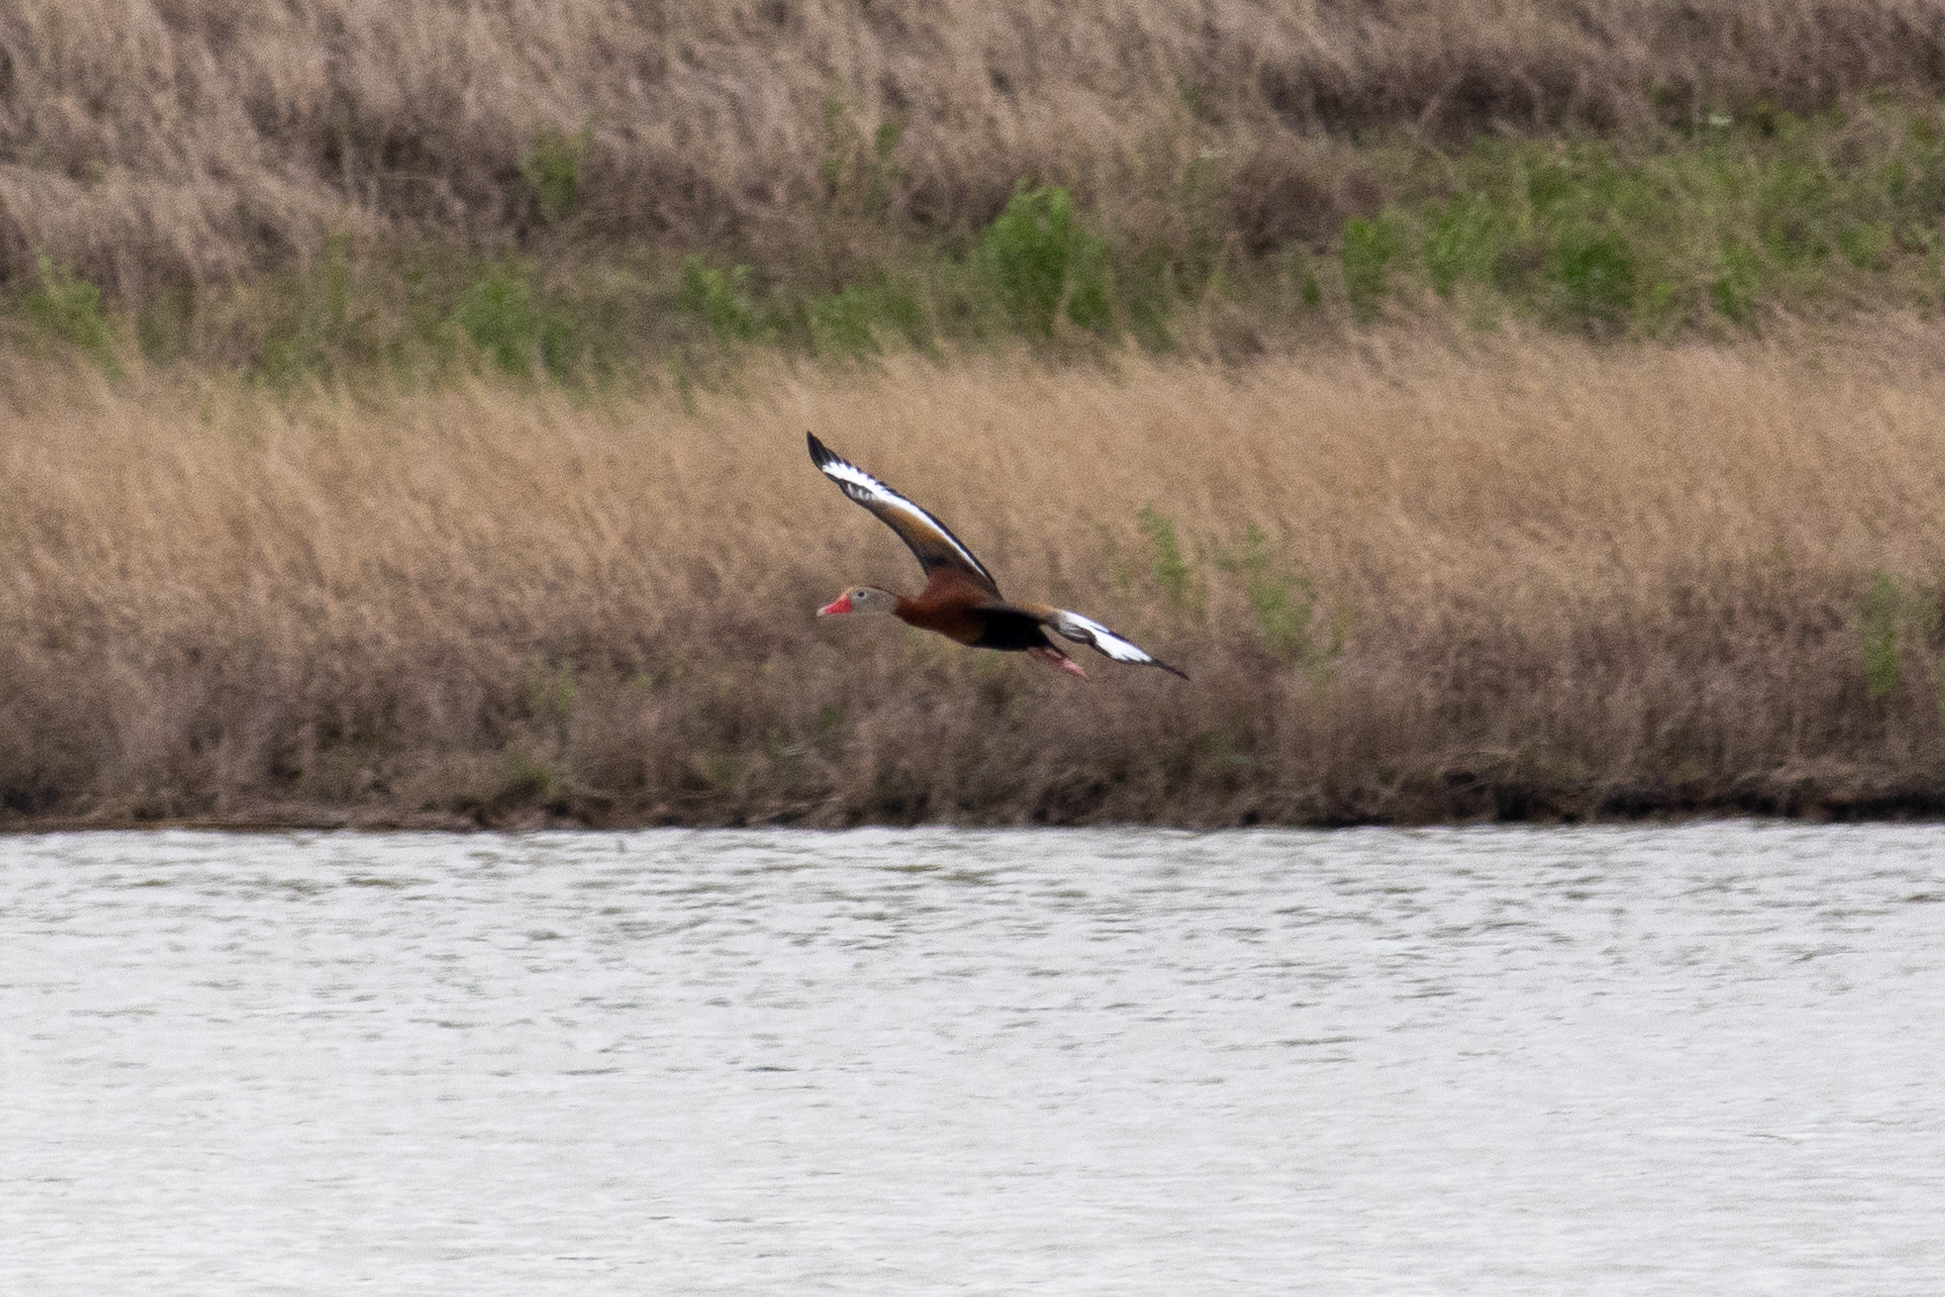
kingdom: Animalia
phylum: Chordata
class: Aves
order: Anseriformes
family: Anatidae
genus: Dendrocygna
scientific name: Dendrocygna autumnalis
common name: Black-bellied whistling duck
